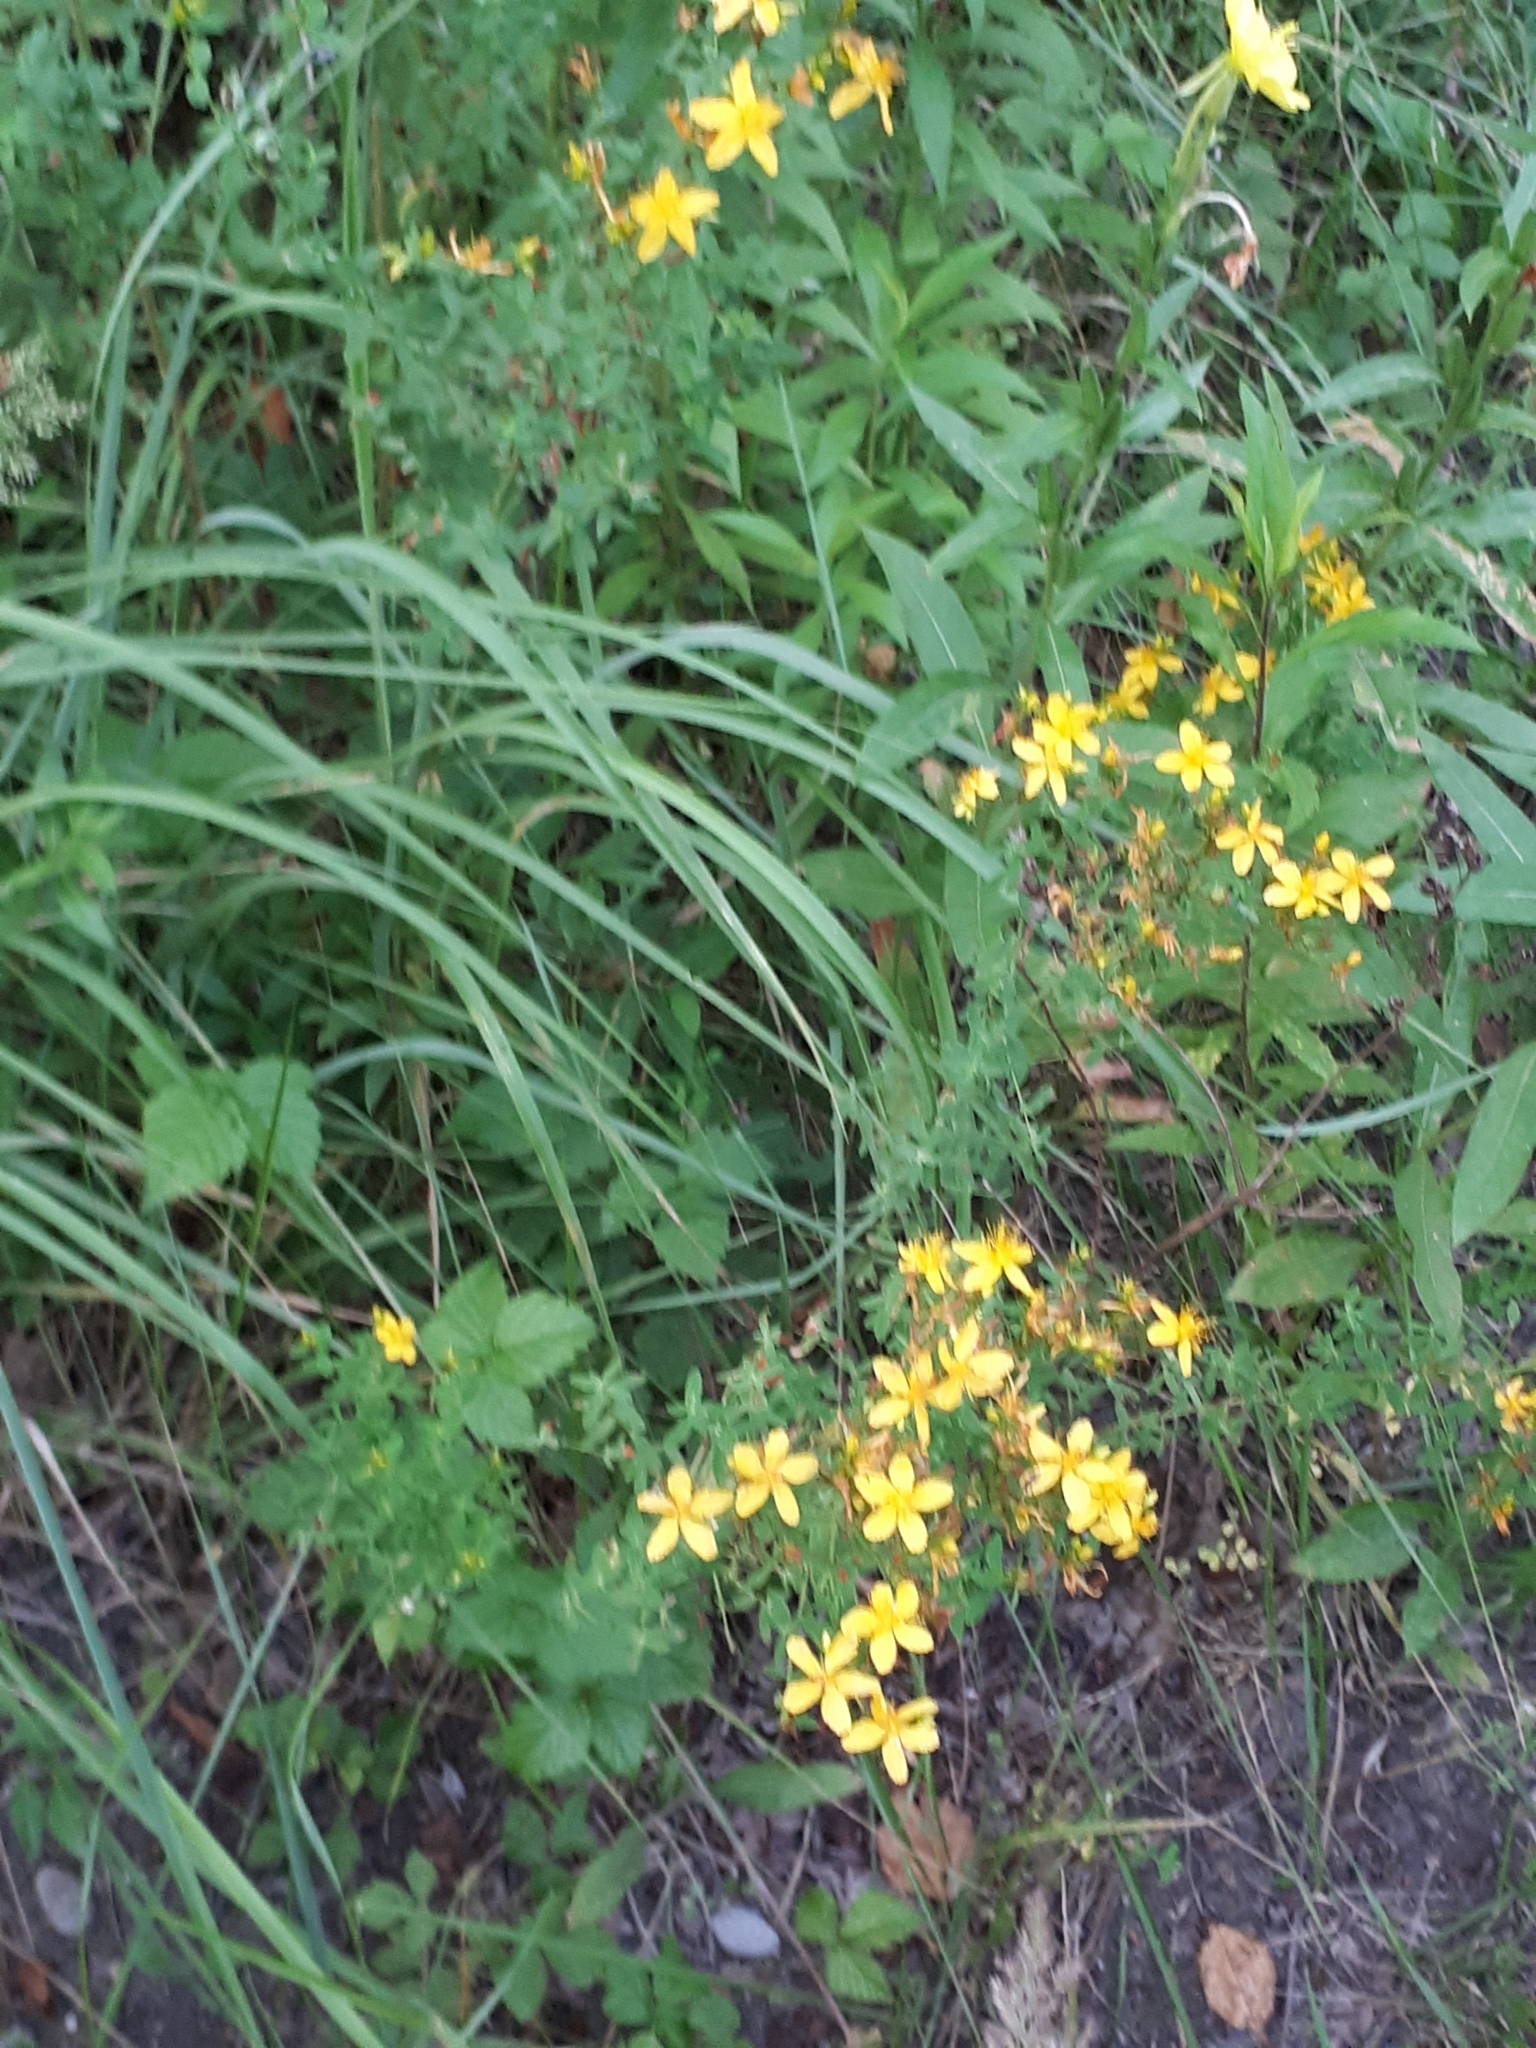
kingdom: Plantae
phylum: Tracheophyta
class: Magnoliopsida
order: Malpighiales
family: Hypericaceae
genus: Hypericum
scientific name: Hypericum perforatum
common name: Common st. johnswort
